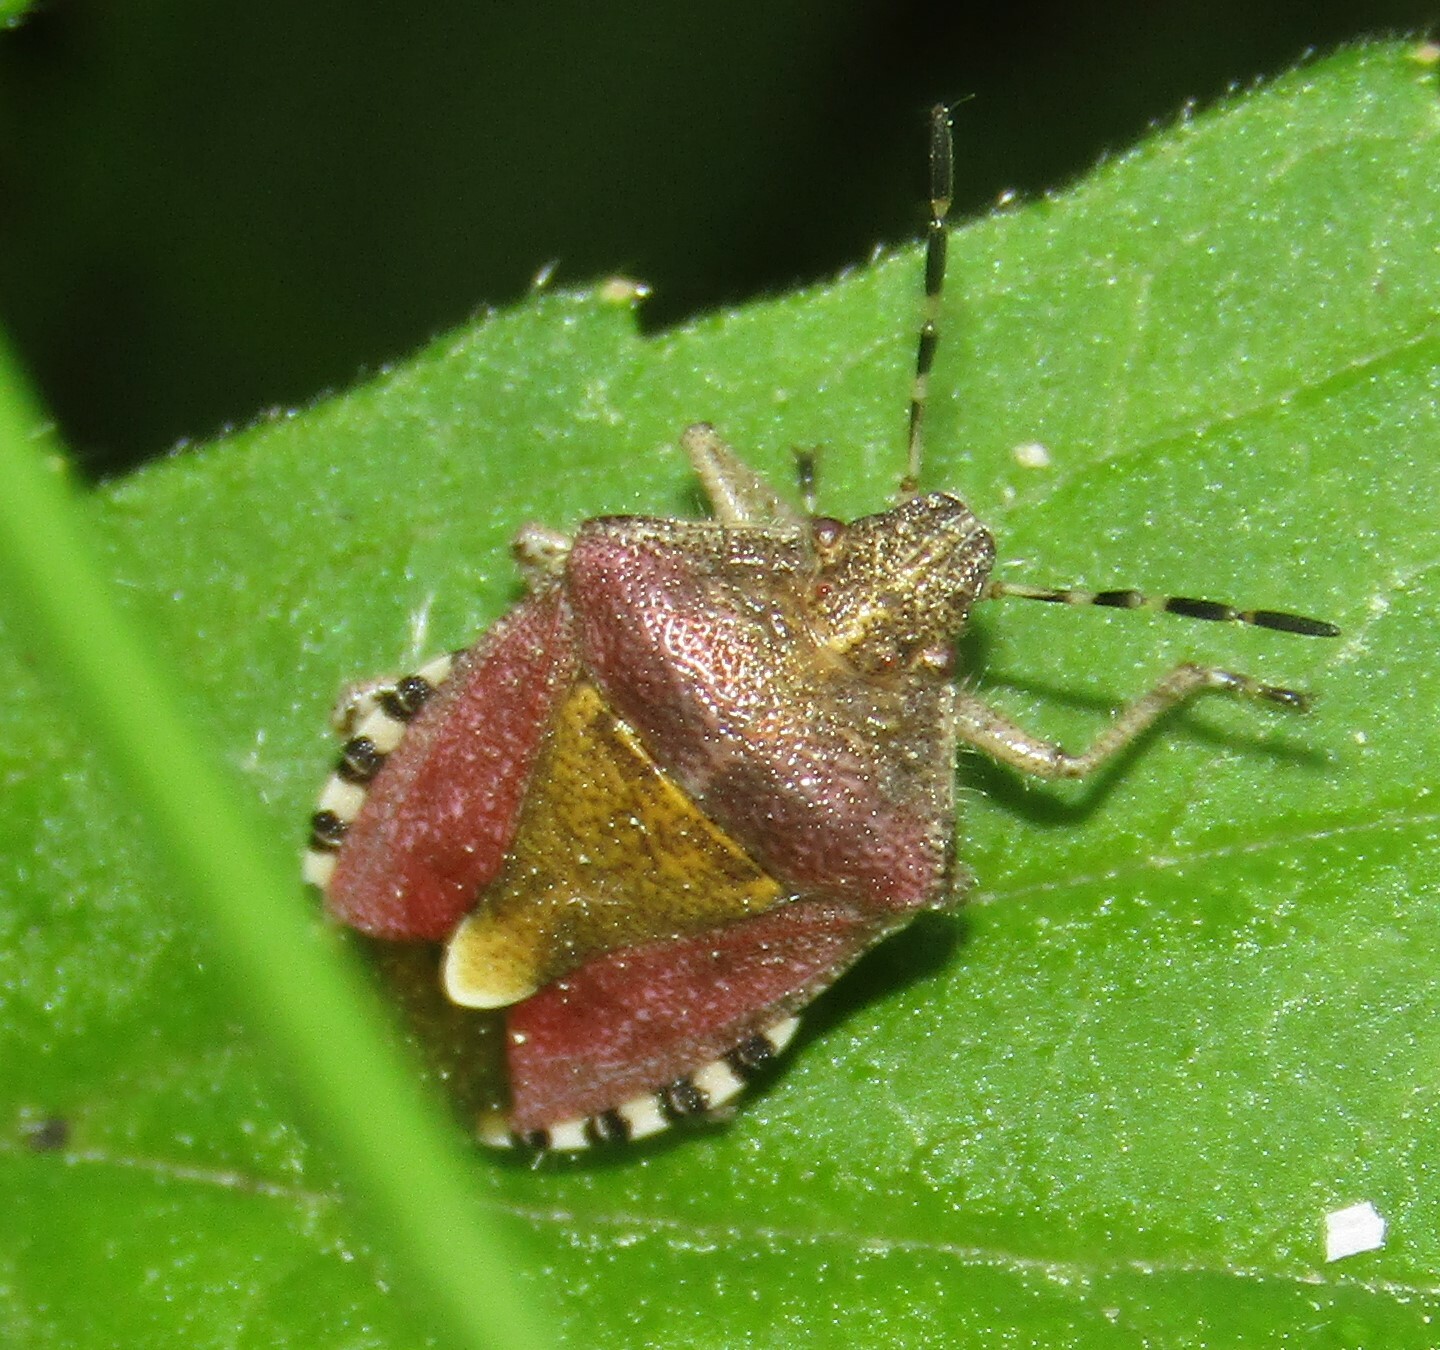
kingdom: Animalia
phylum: Arthropoda
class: Insecta
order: Hemiptera
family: Pentatomidae
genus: Dolycoris
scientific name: Dolycoris baccarum
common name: Sloe bug
